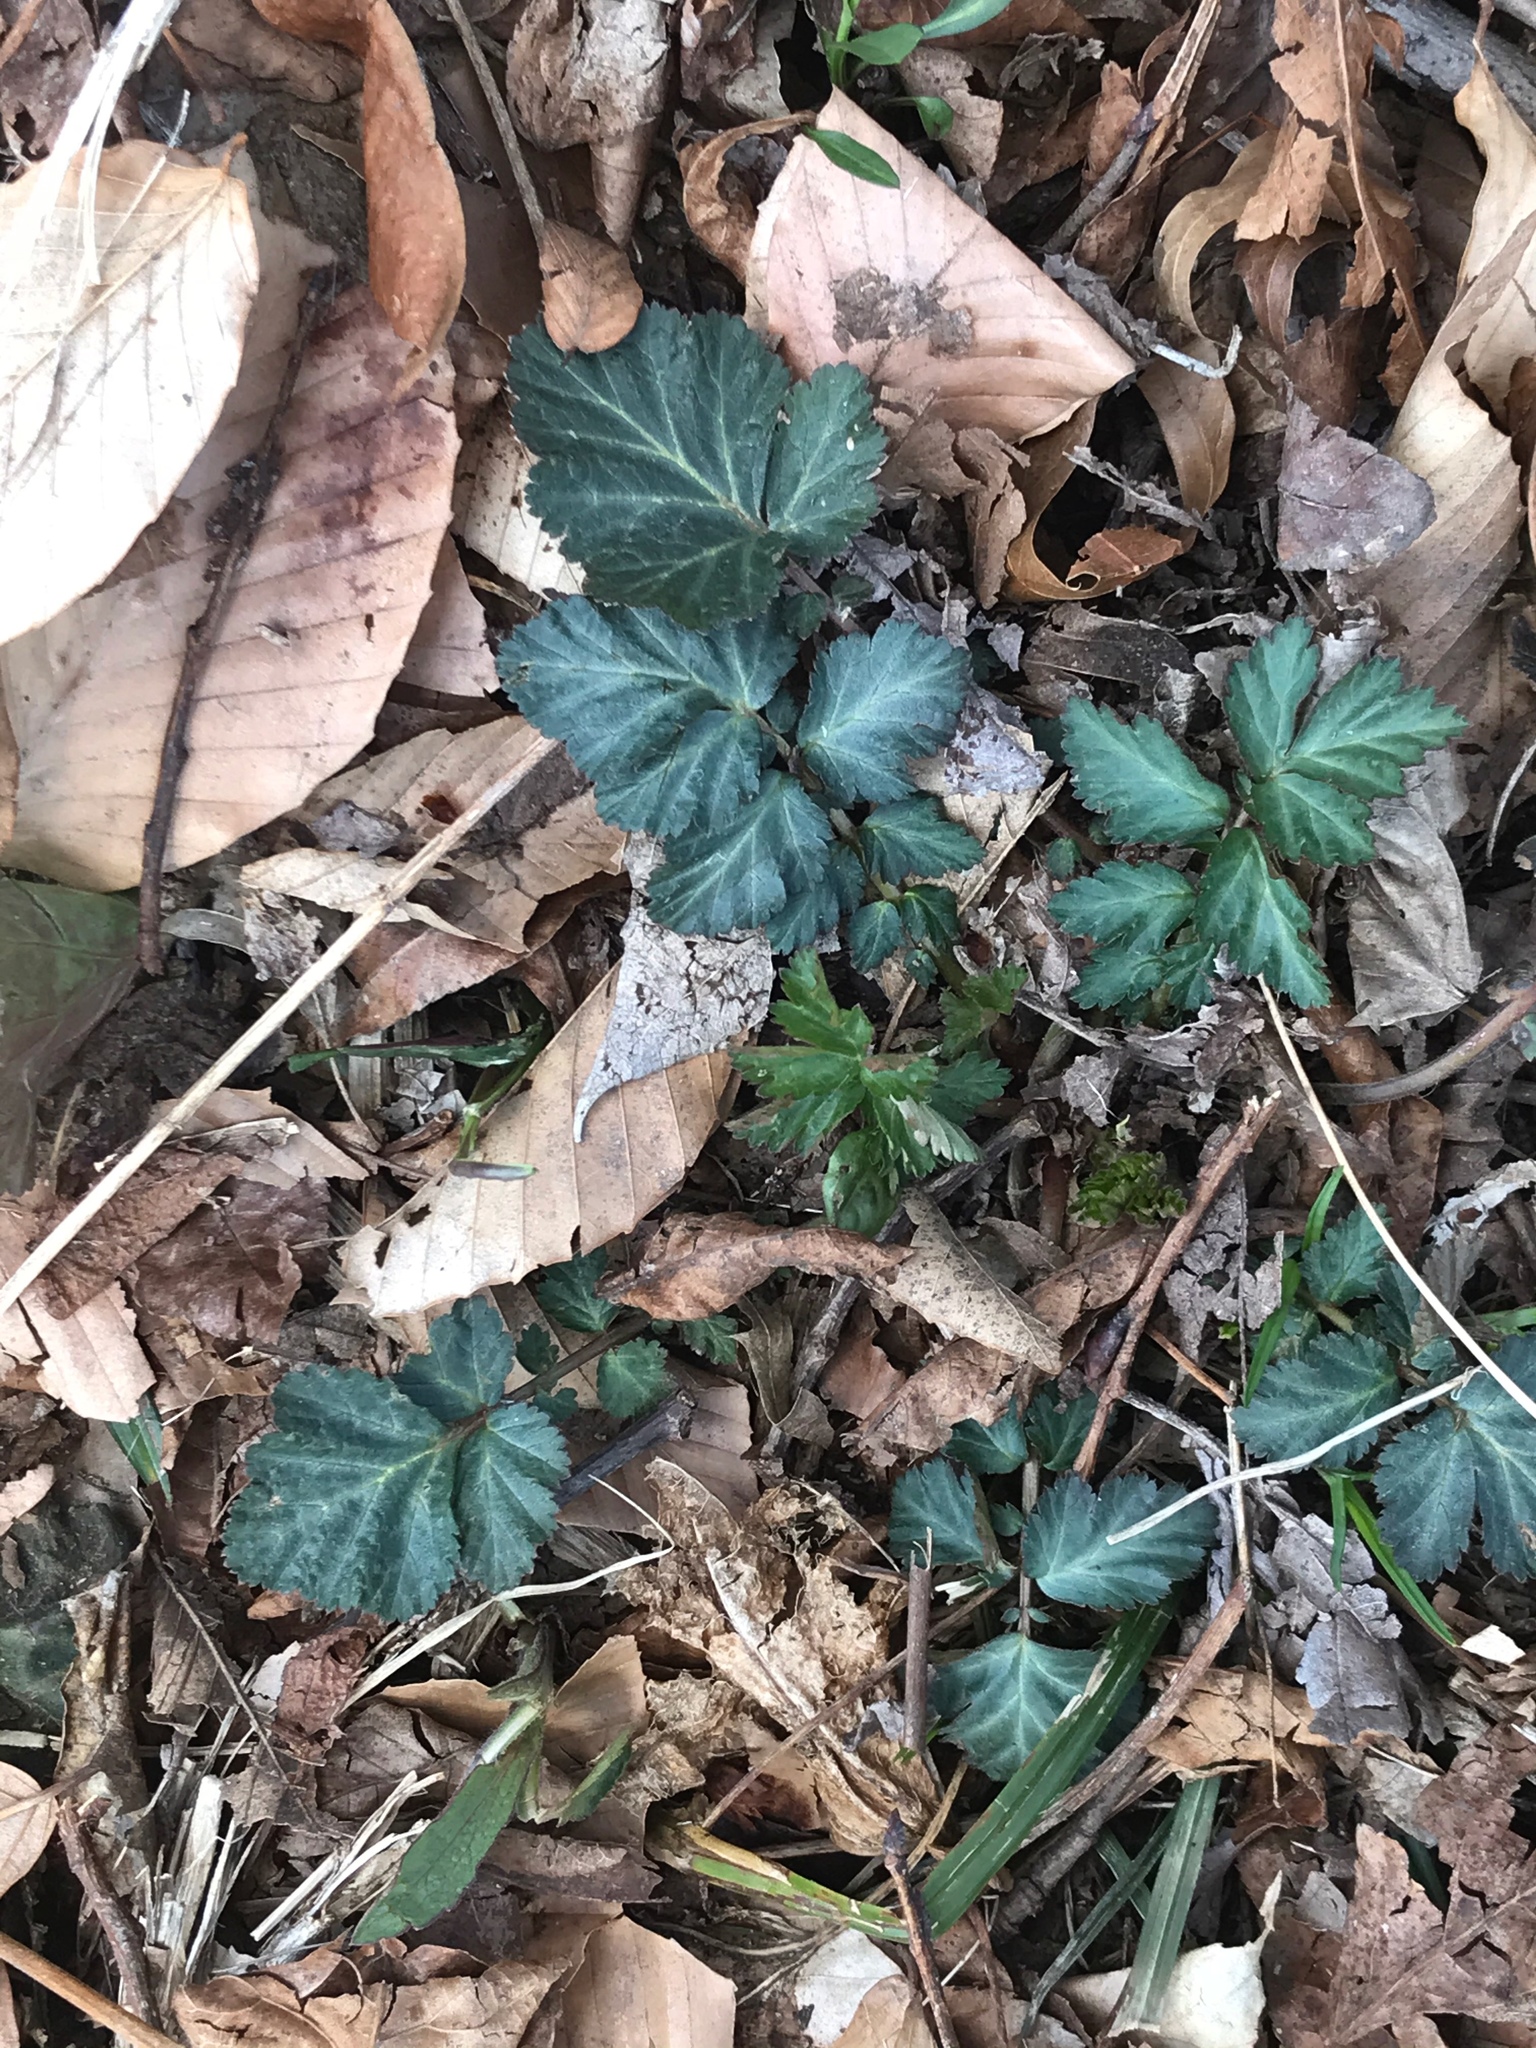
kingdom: Plantae
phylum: Tracheophyta
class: Magnoliopsida
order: Rosales
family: Rosaceae
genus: Geum
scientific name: Geum canadense
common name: White avens
